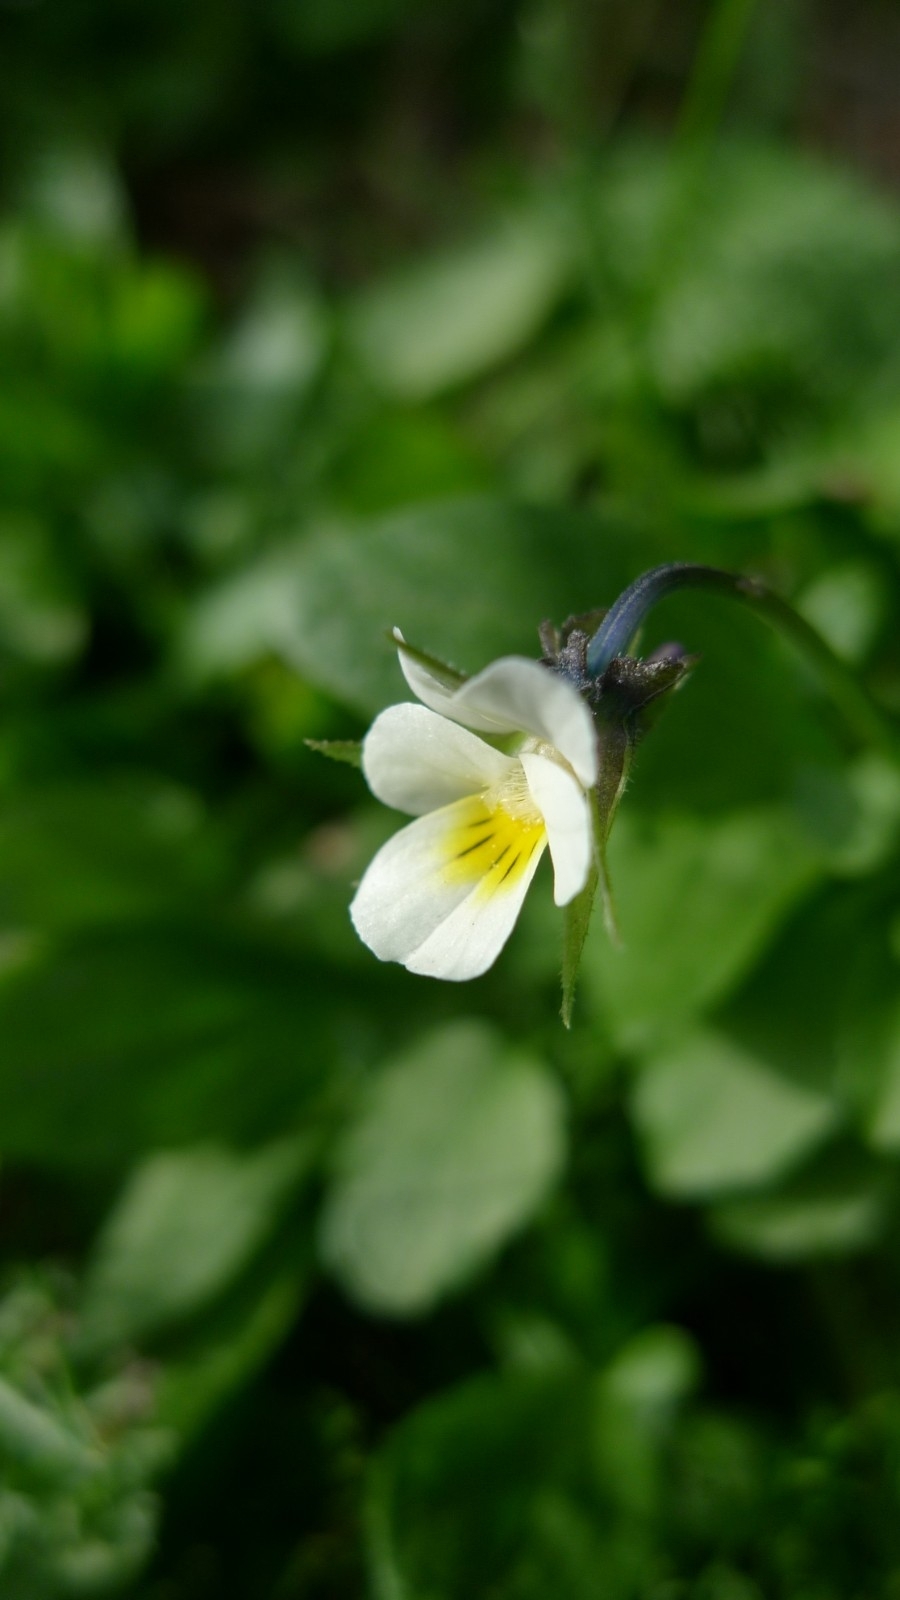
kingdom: Plantae
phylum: Tracheophyta
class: Magnoliopsida
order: Malpighiales
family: Violaceae
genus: Viola
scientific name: Viola arvensis
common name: Field pansy
